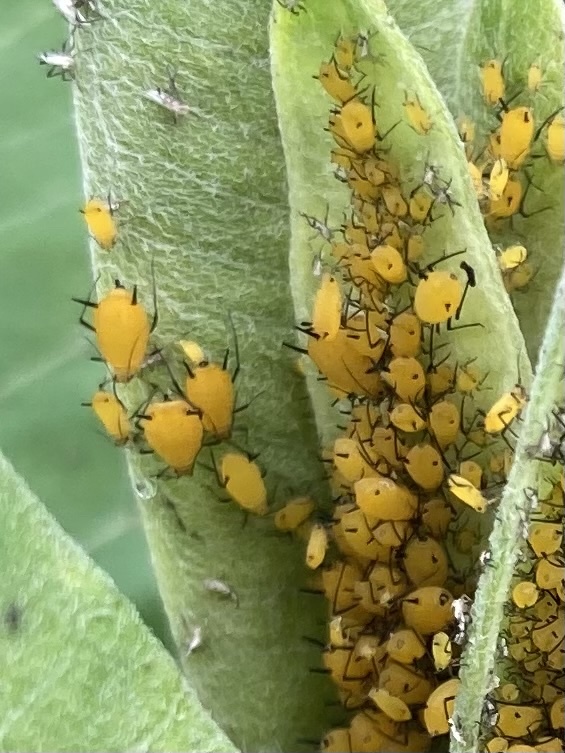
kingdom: Animalia
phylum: Arthropoda
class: Insecta
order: Hemiptera
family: Aphididae
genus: Aphis
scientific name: Aphis nerii
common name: Oleander aphid
